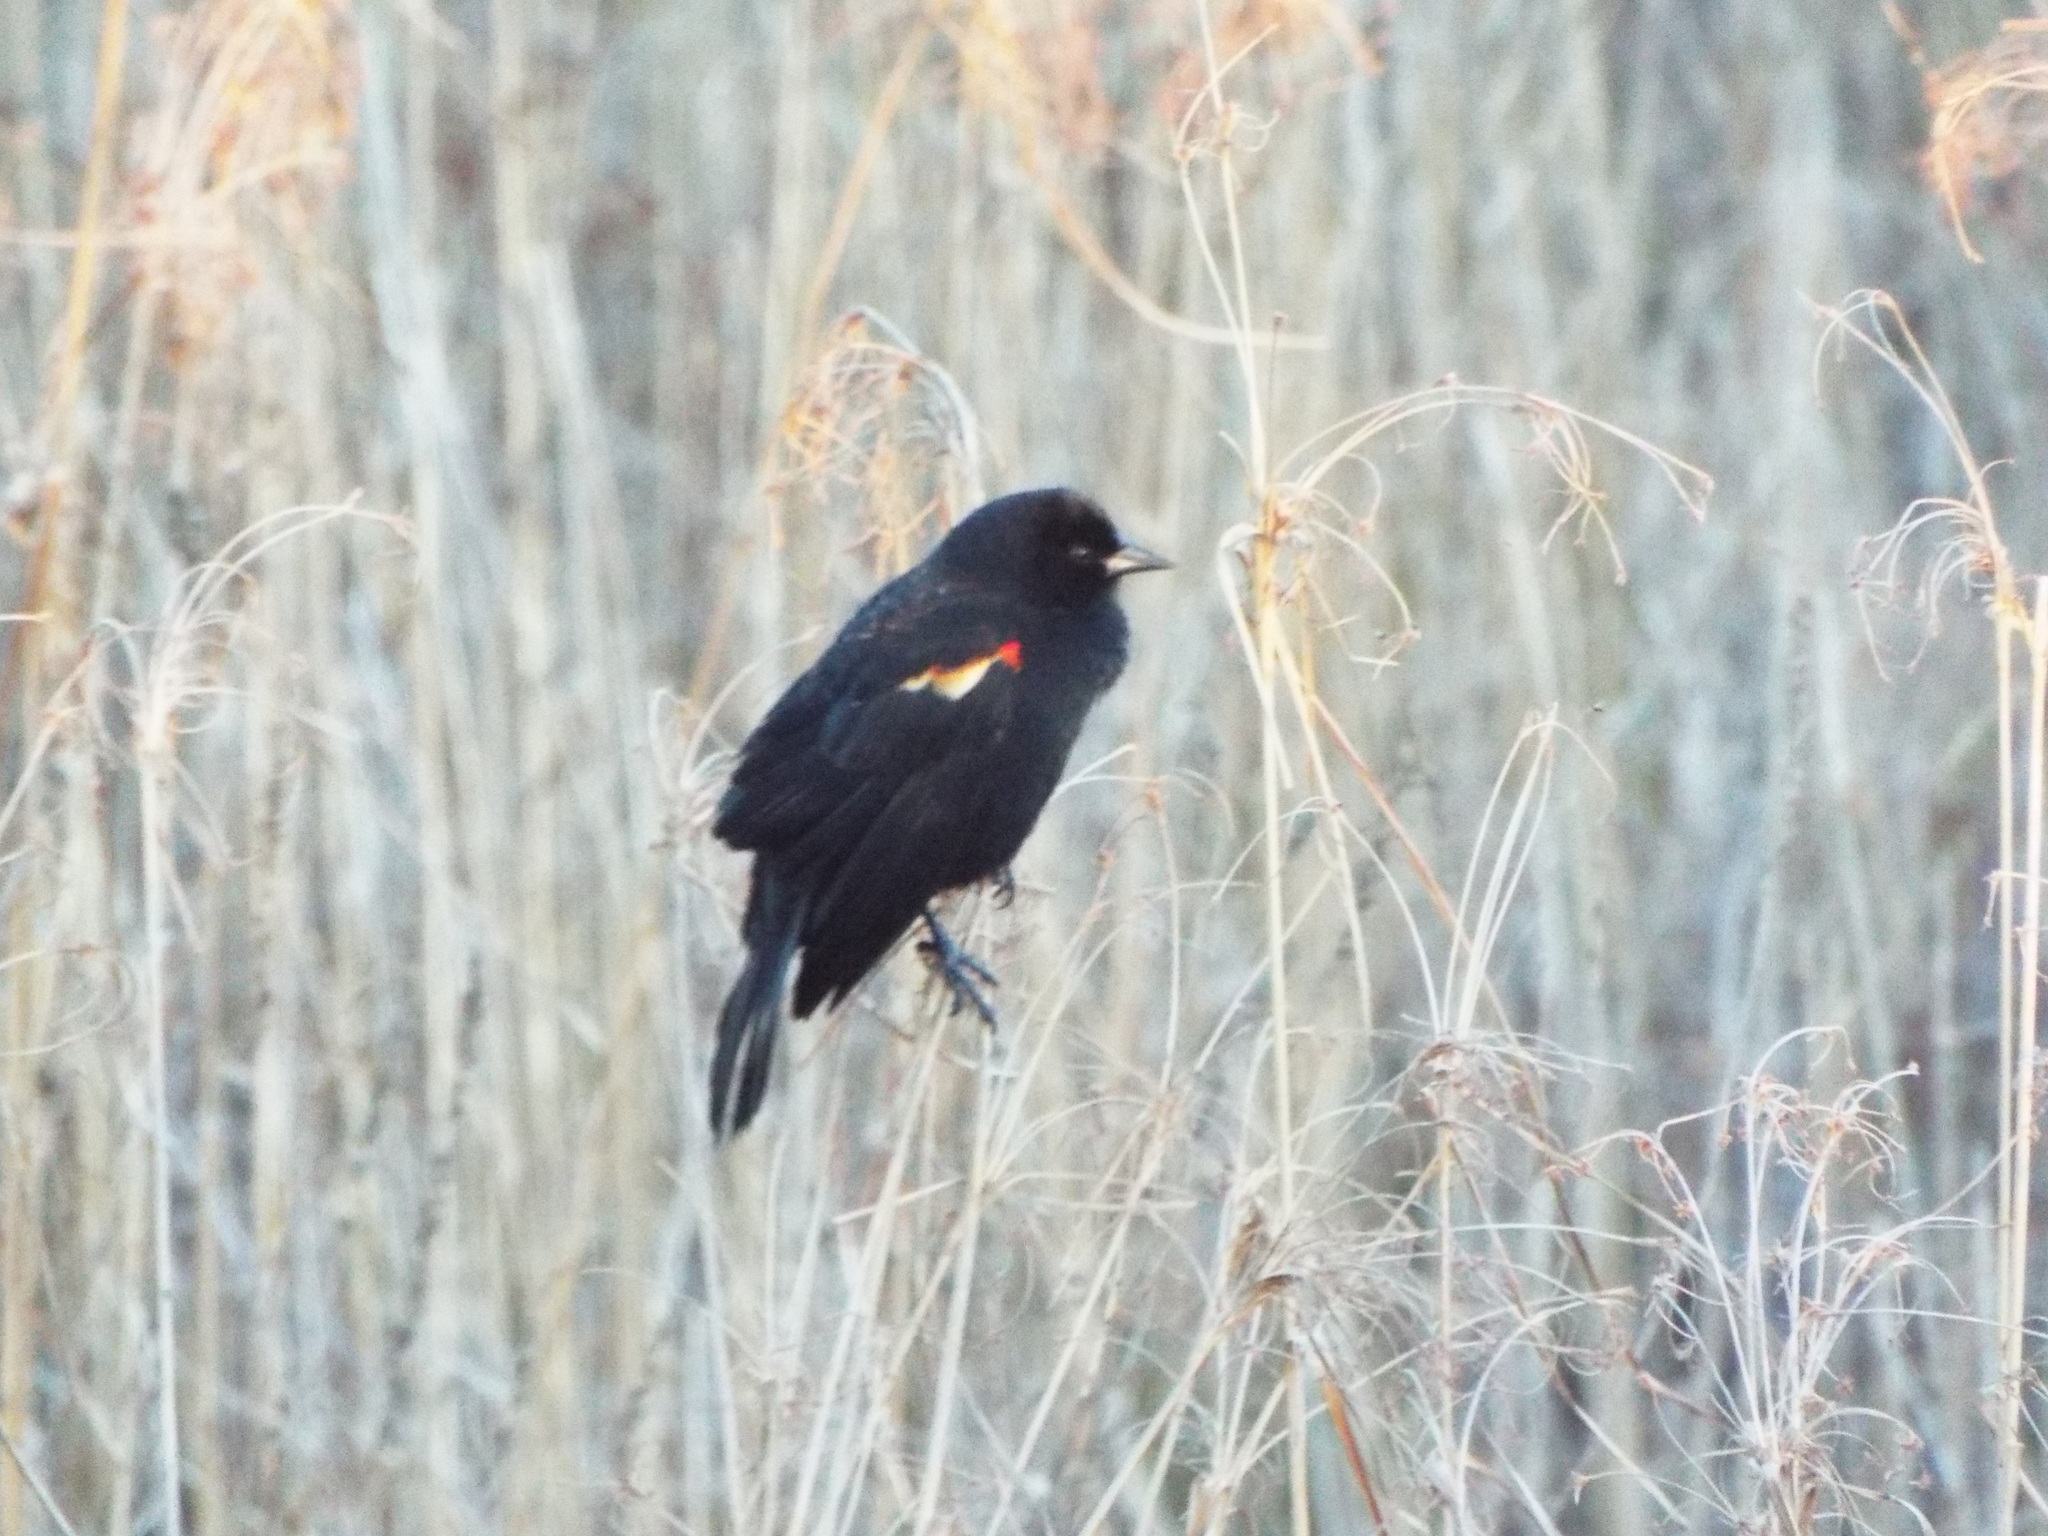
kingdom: Animalia
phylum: Chordata
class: Aves
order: Passeriformes
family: Icteridae
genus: Agelaius
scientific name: Agelaius phoeniceus
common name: Red-winged blackbird
